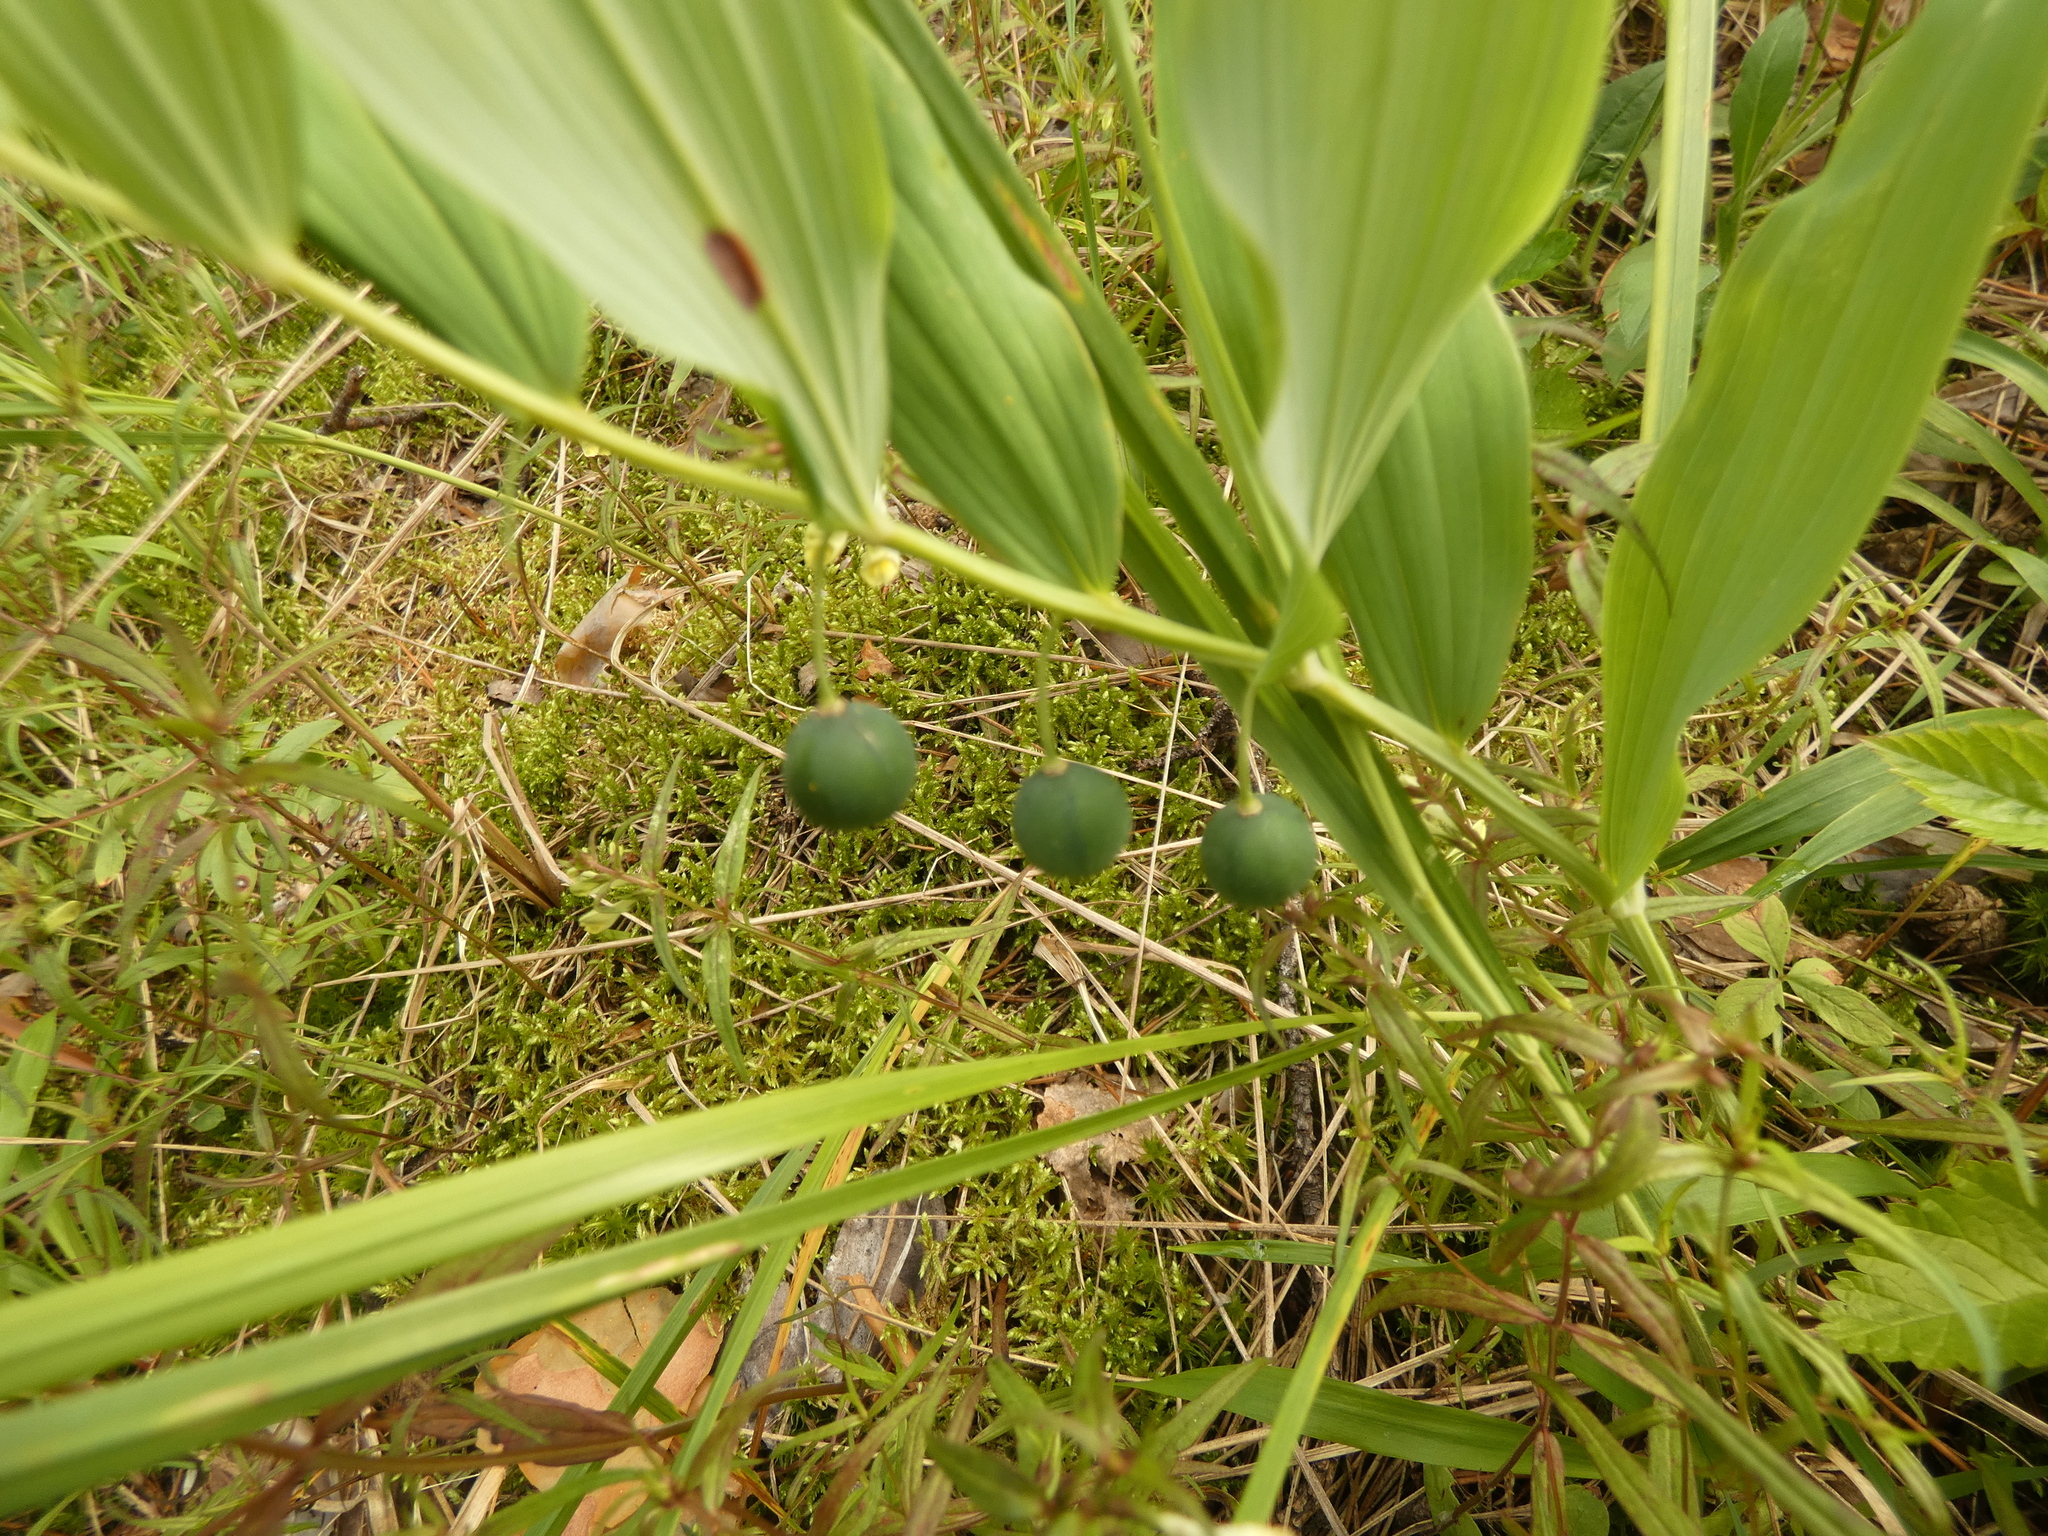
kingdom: Plantae
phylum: Tracheophyta
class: Liliopsida
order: Asparagales
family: Asparagaceae
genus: Polygonatum
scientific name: Polygonatum odoratum
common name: Angular solomon's-seal
